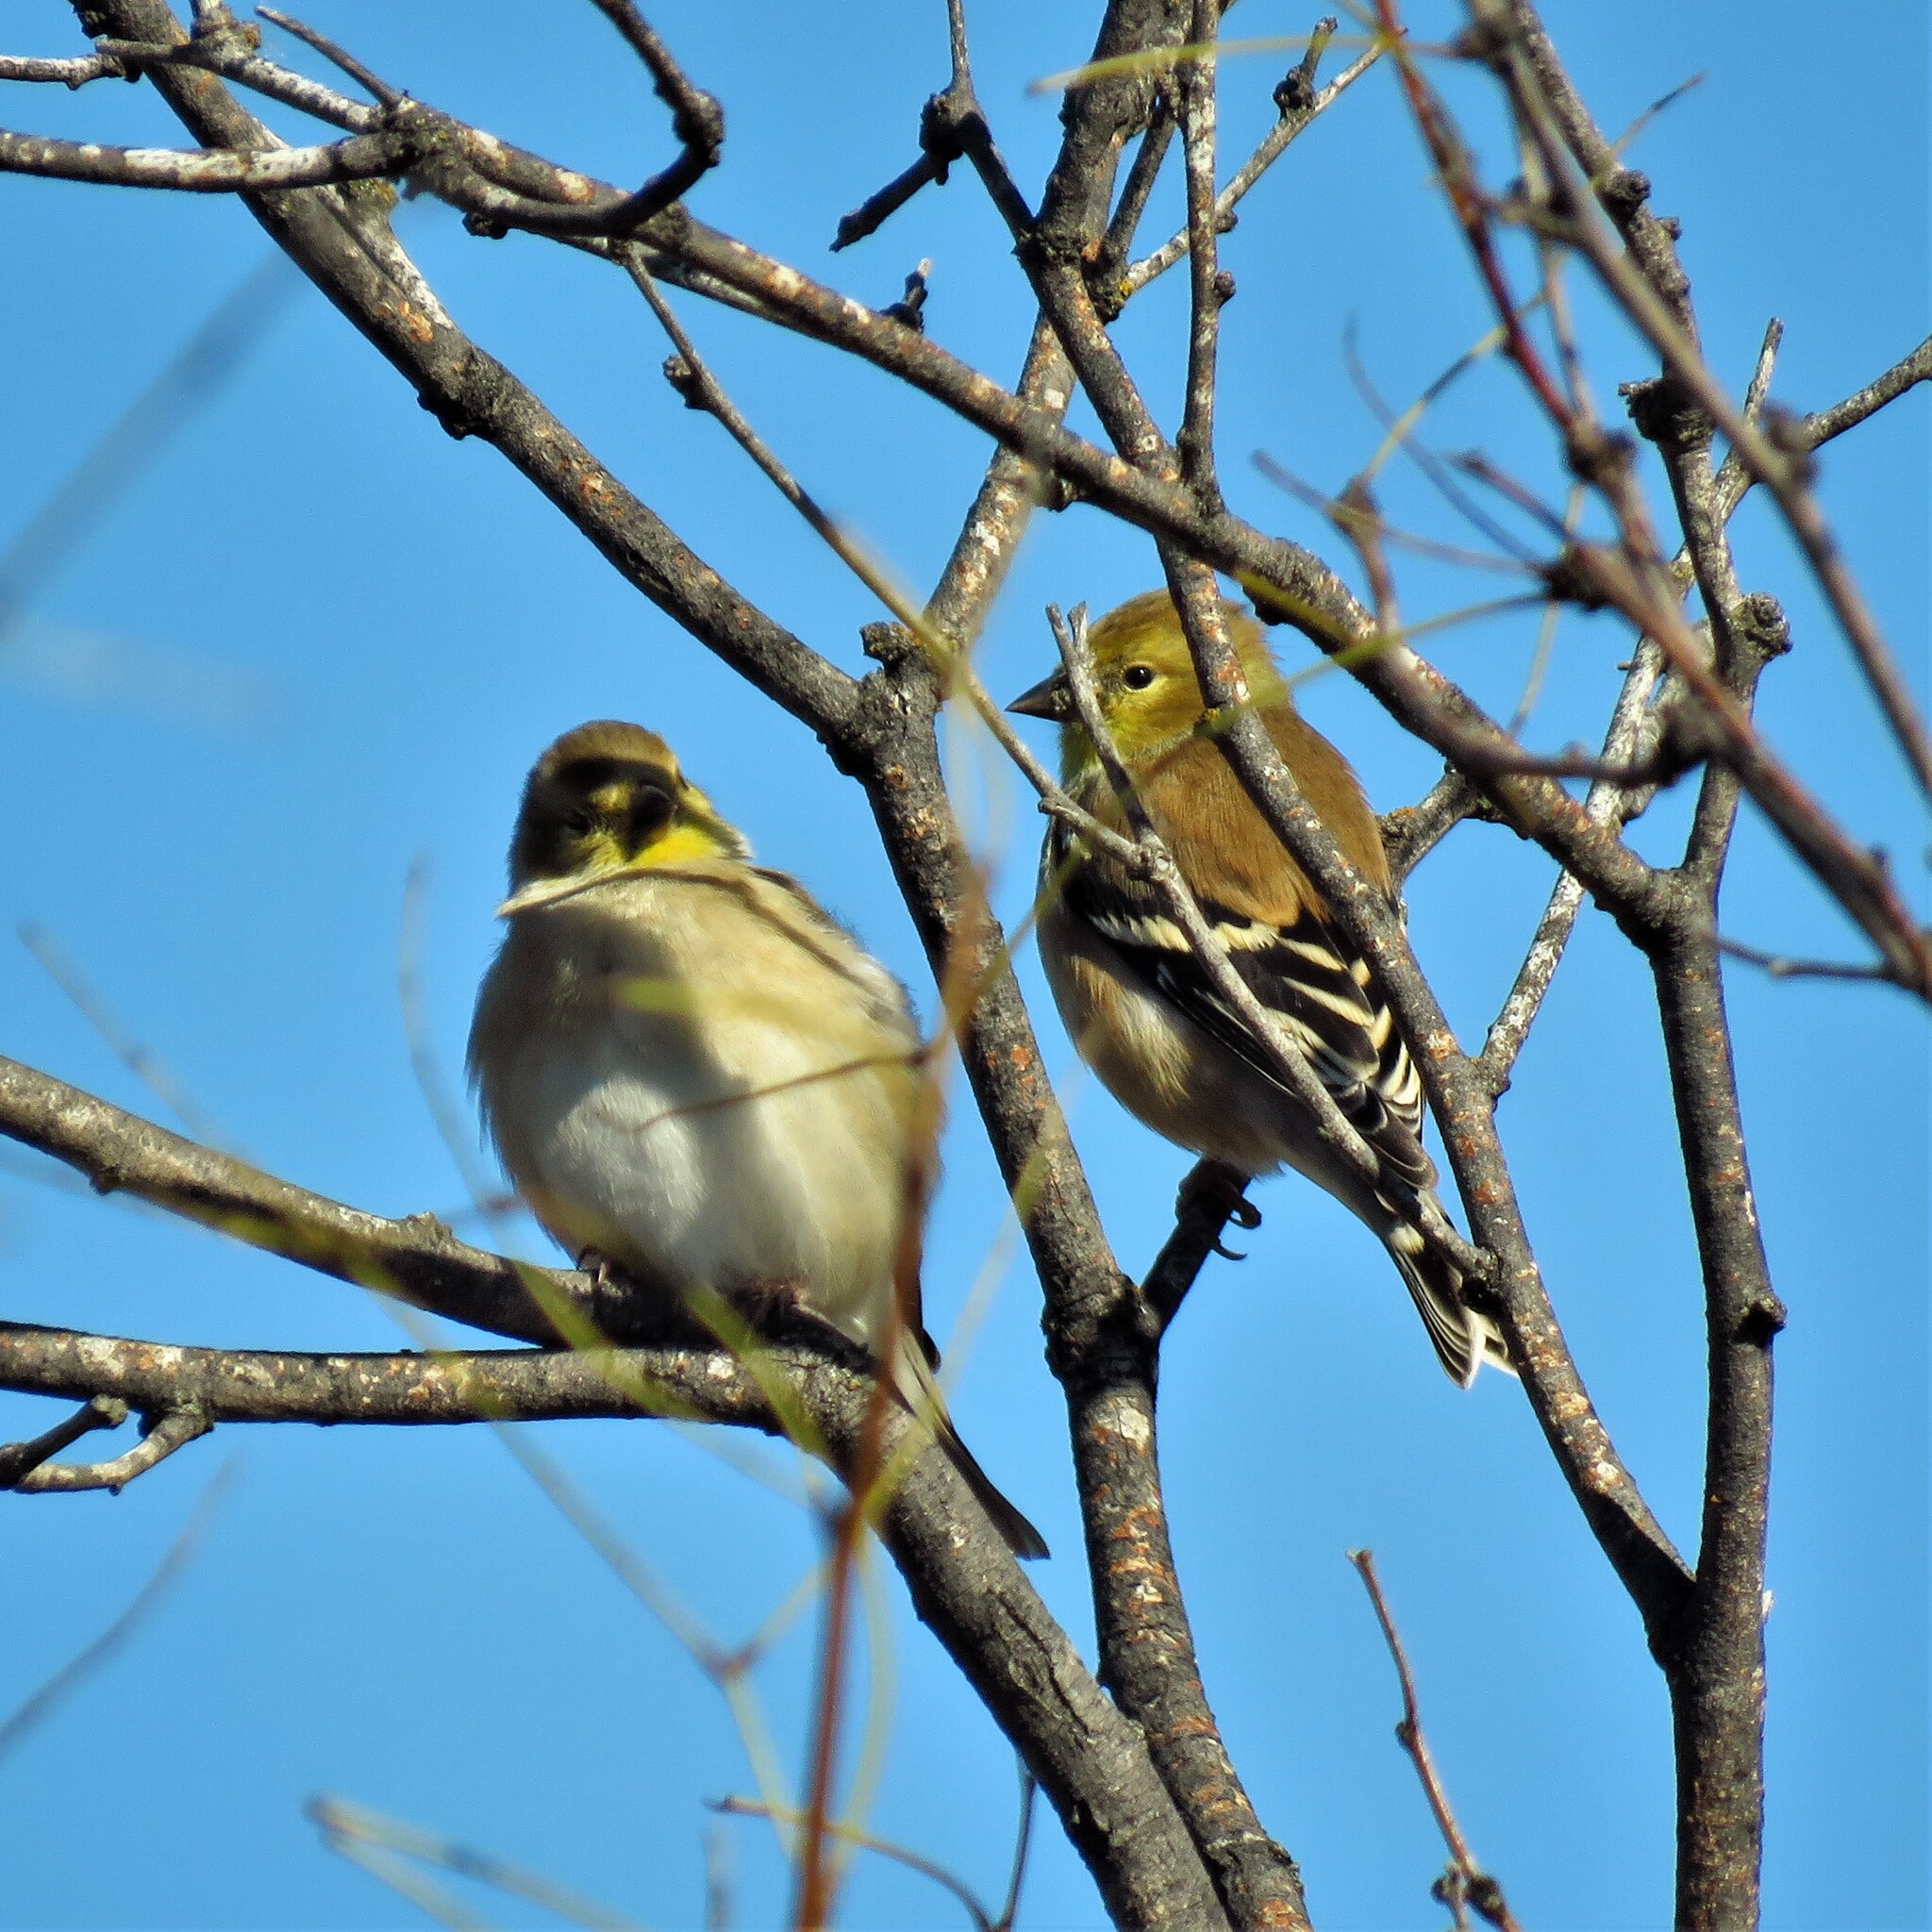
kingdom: Animalia
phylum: Chordata
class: Aves
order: Passeriformes
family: Fringillidae
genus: Spinus
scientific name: Spinus tristis
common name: American goldfinch
